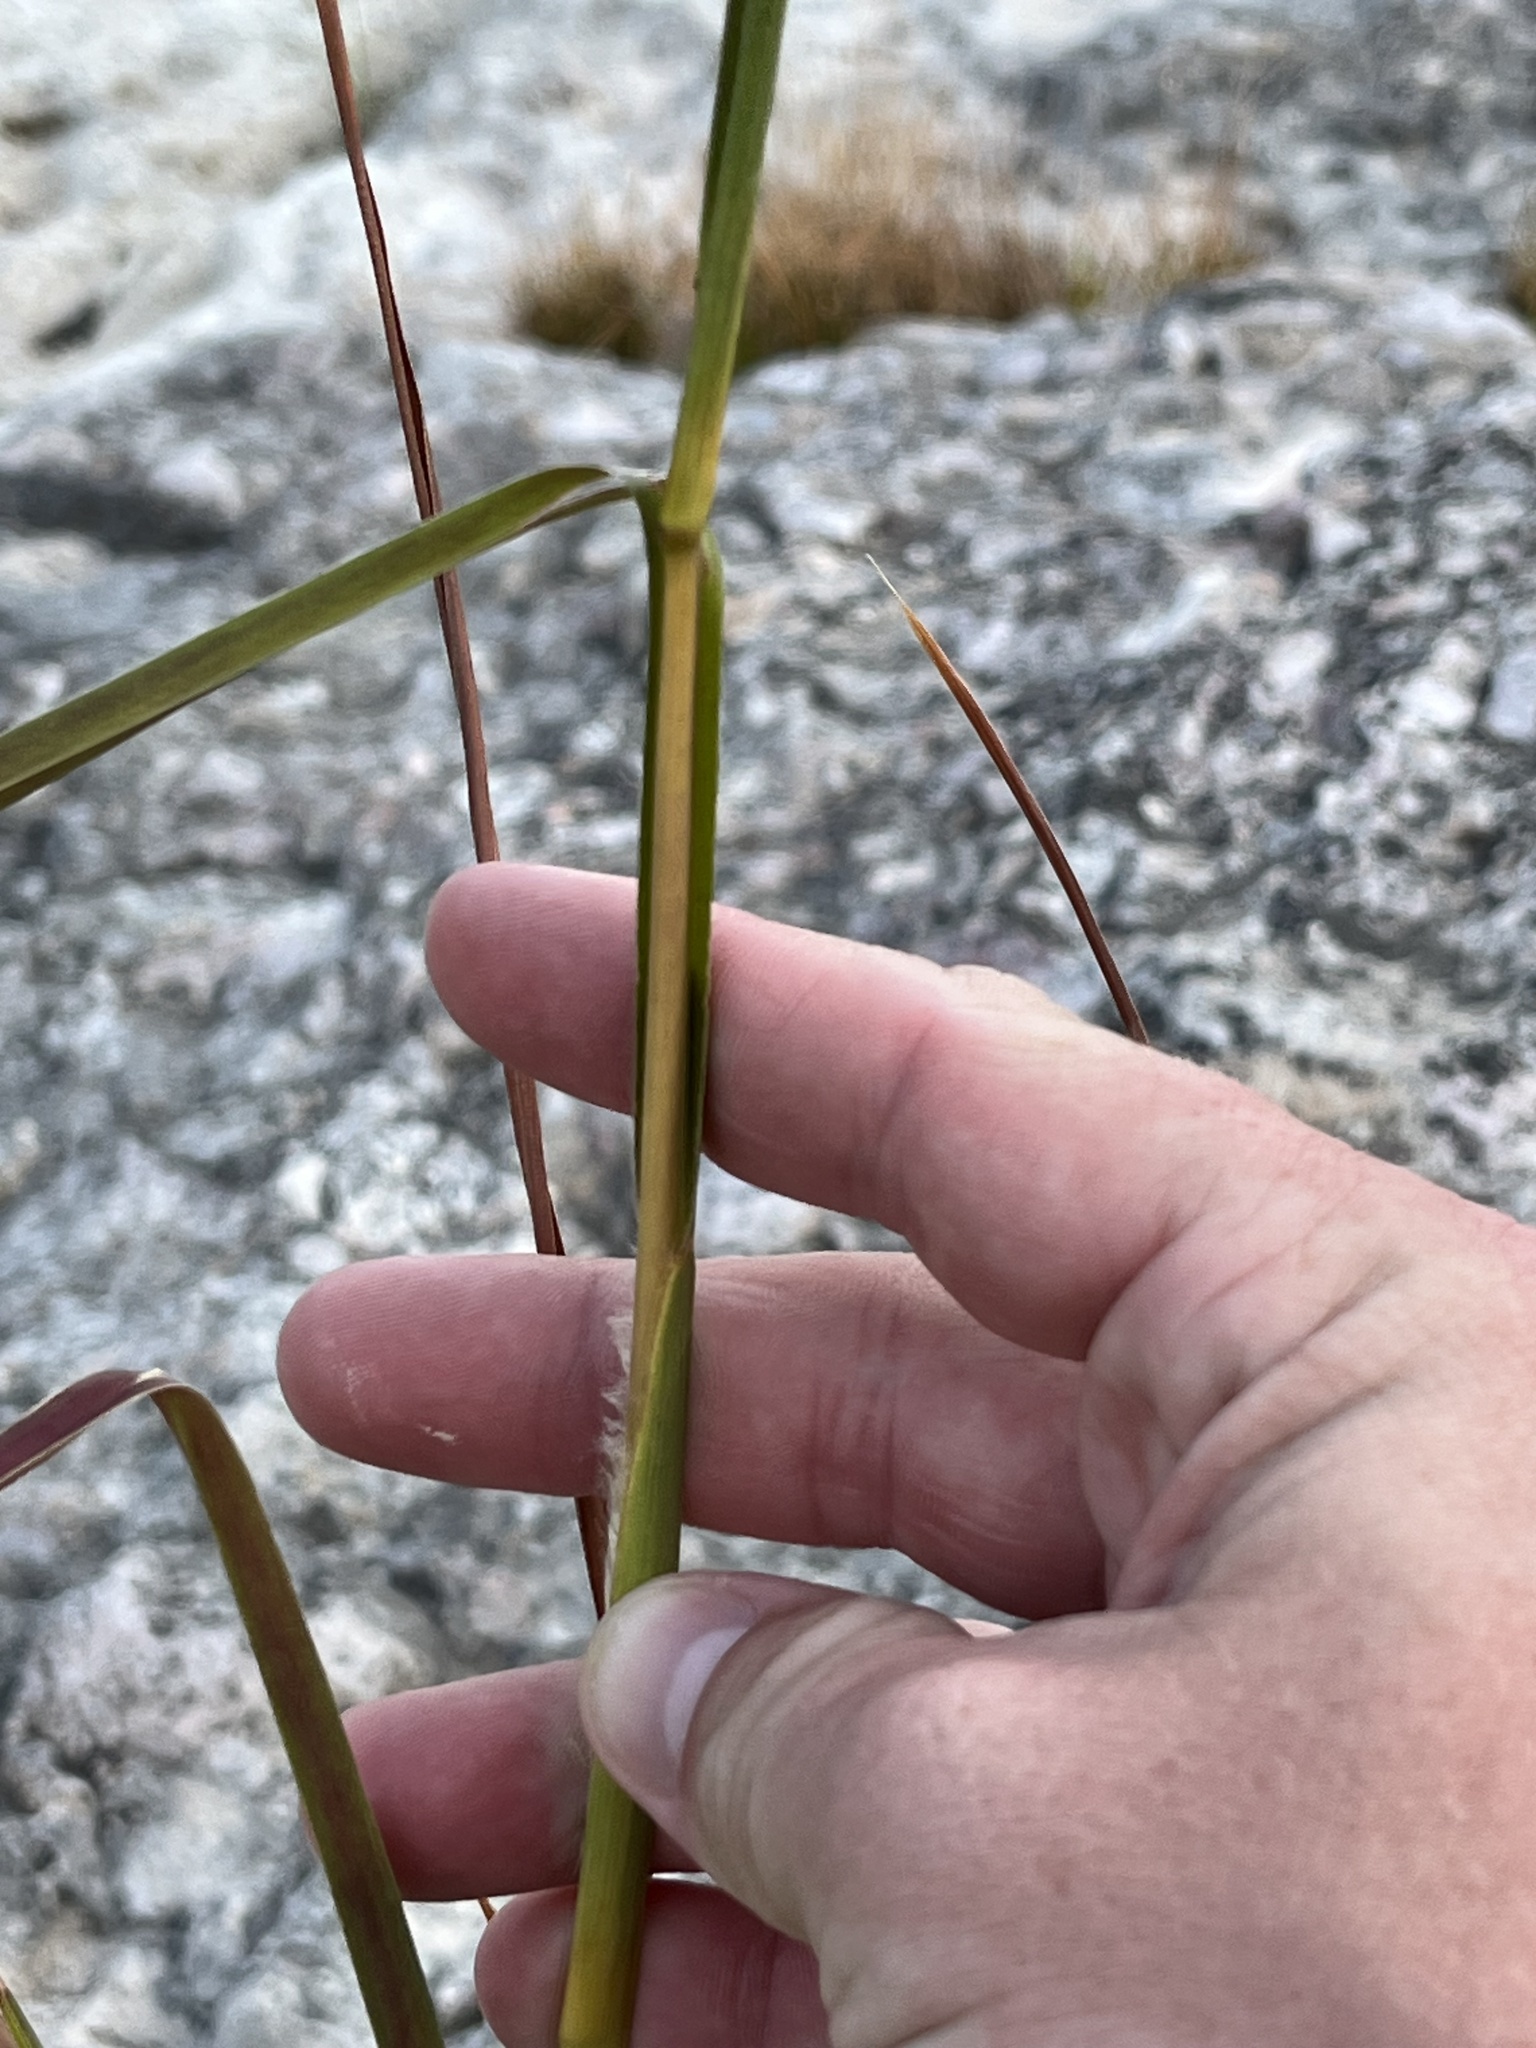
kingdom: Plantae
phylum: Tracheophyta
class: Liliopsida
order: Poales
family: Poaceae
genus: Andropogon
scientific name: Andropogon tenuispatheus
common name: Bushy bluestem
